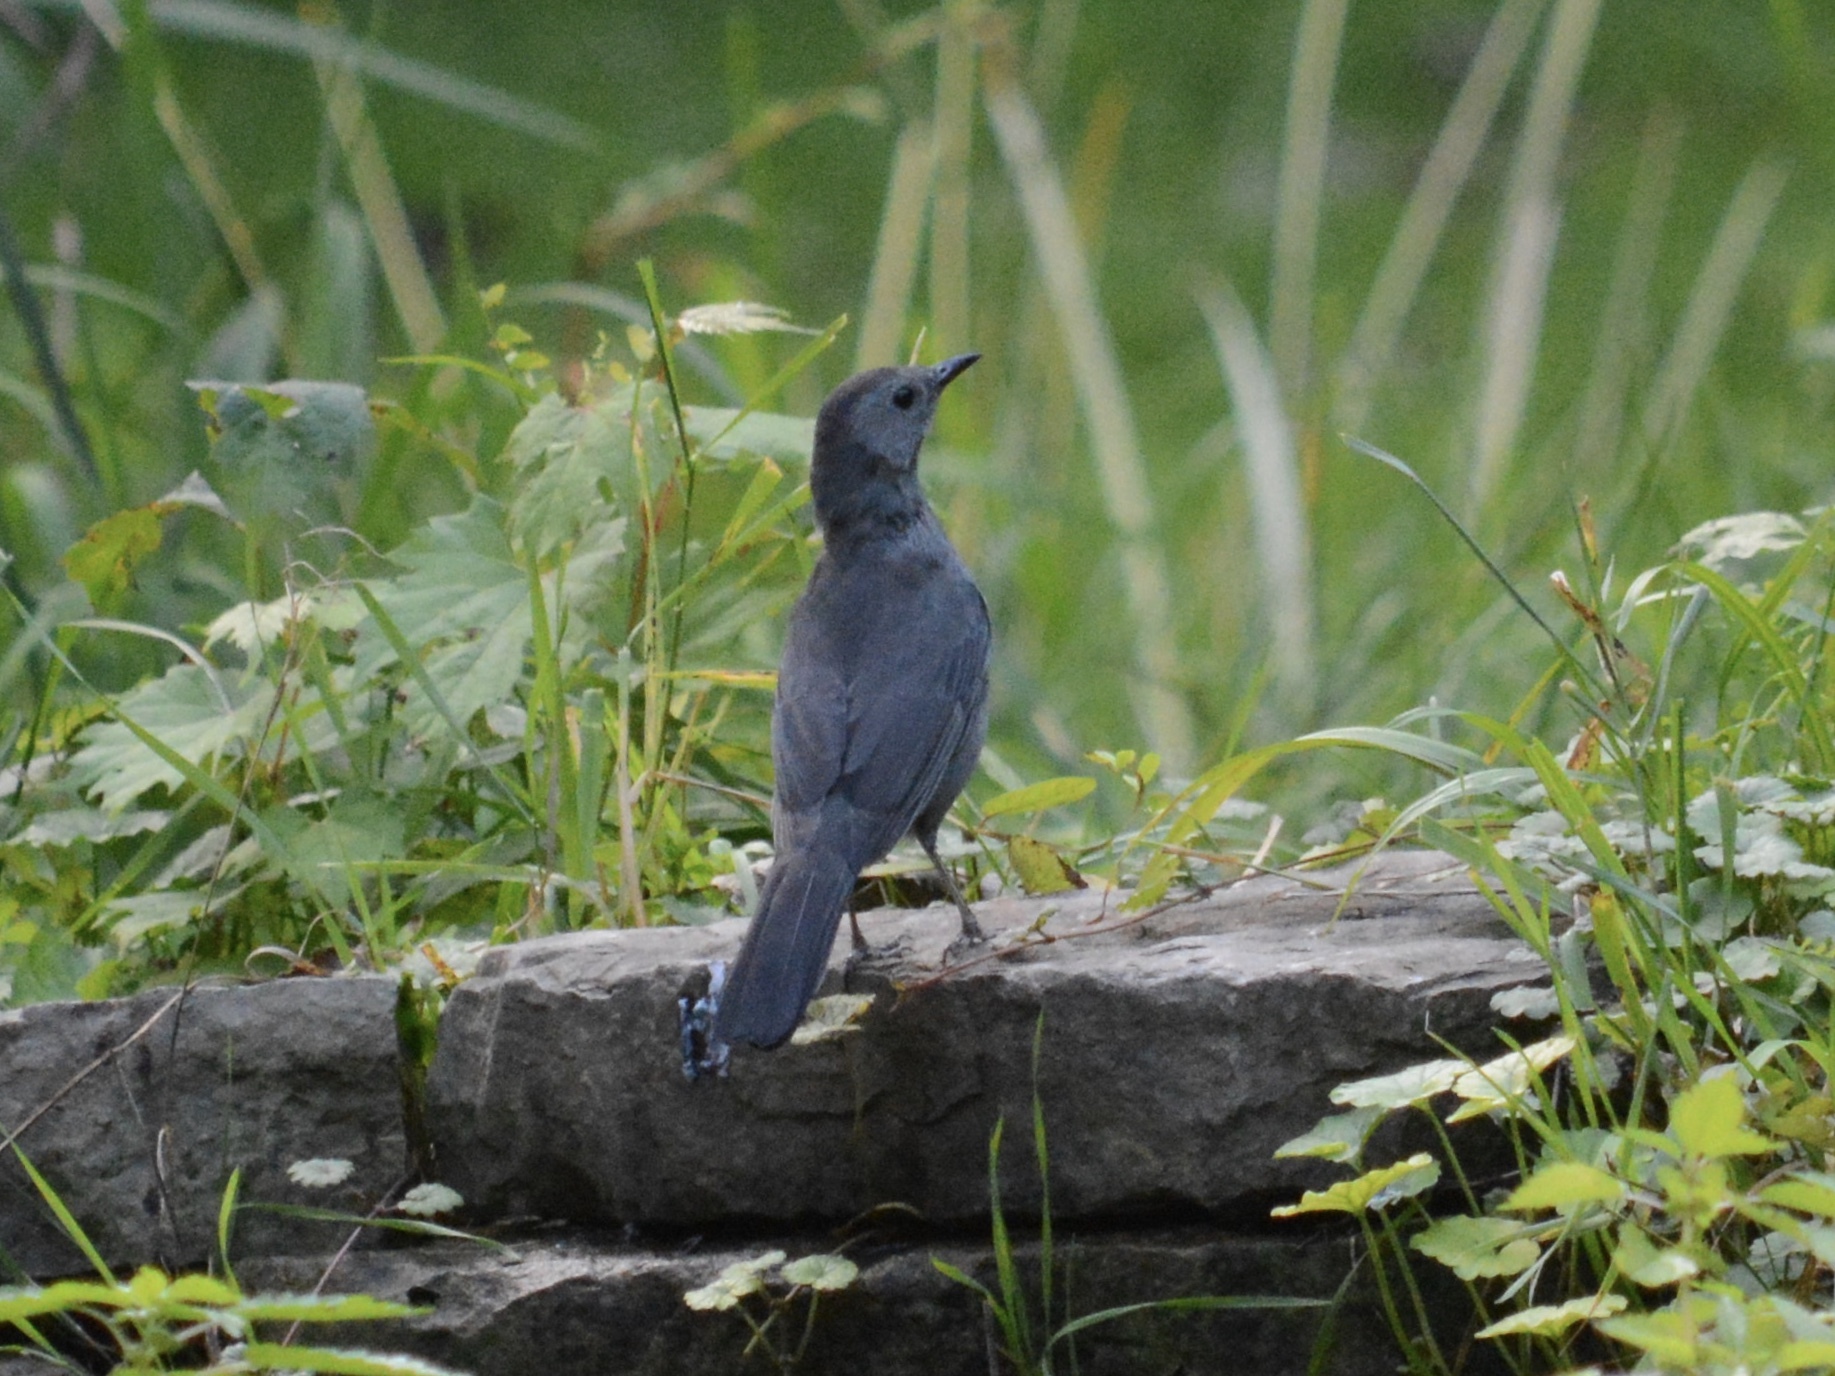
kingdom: Animalia
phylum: Chordata
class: Aves
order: Passeriformes
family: Mimidae
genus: Dumetella
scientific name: Dumetella carolinensis
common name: Gray catbird
